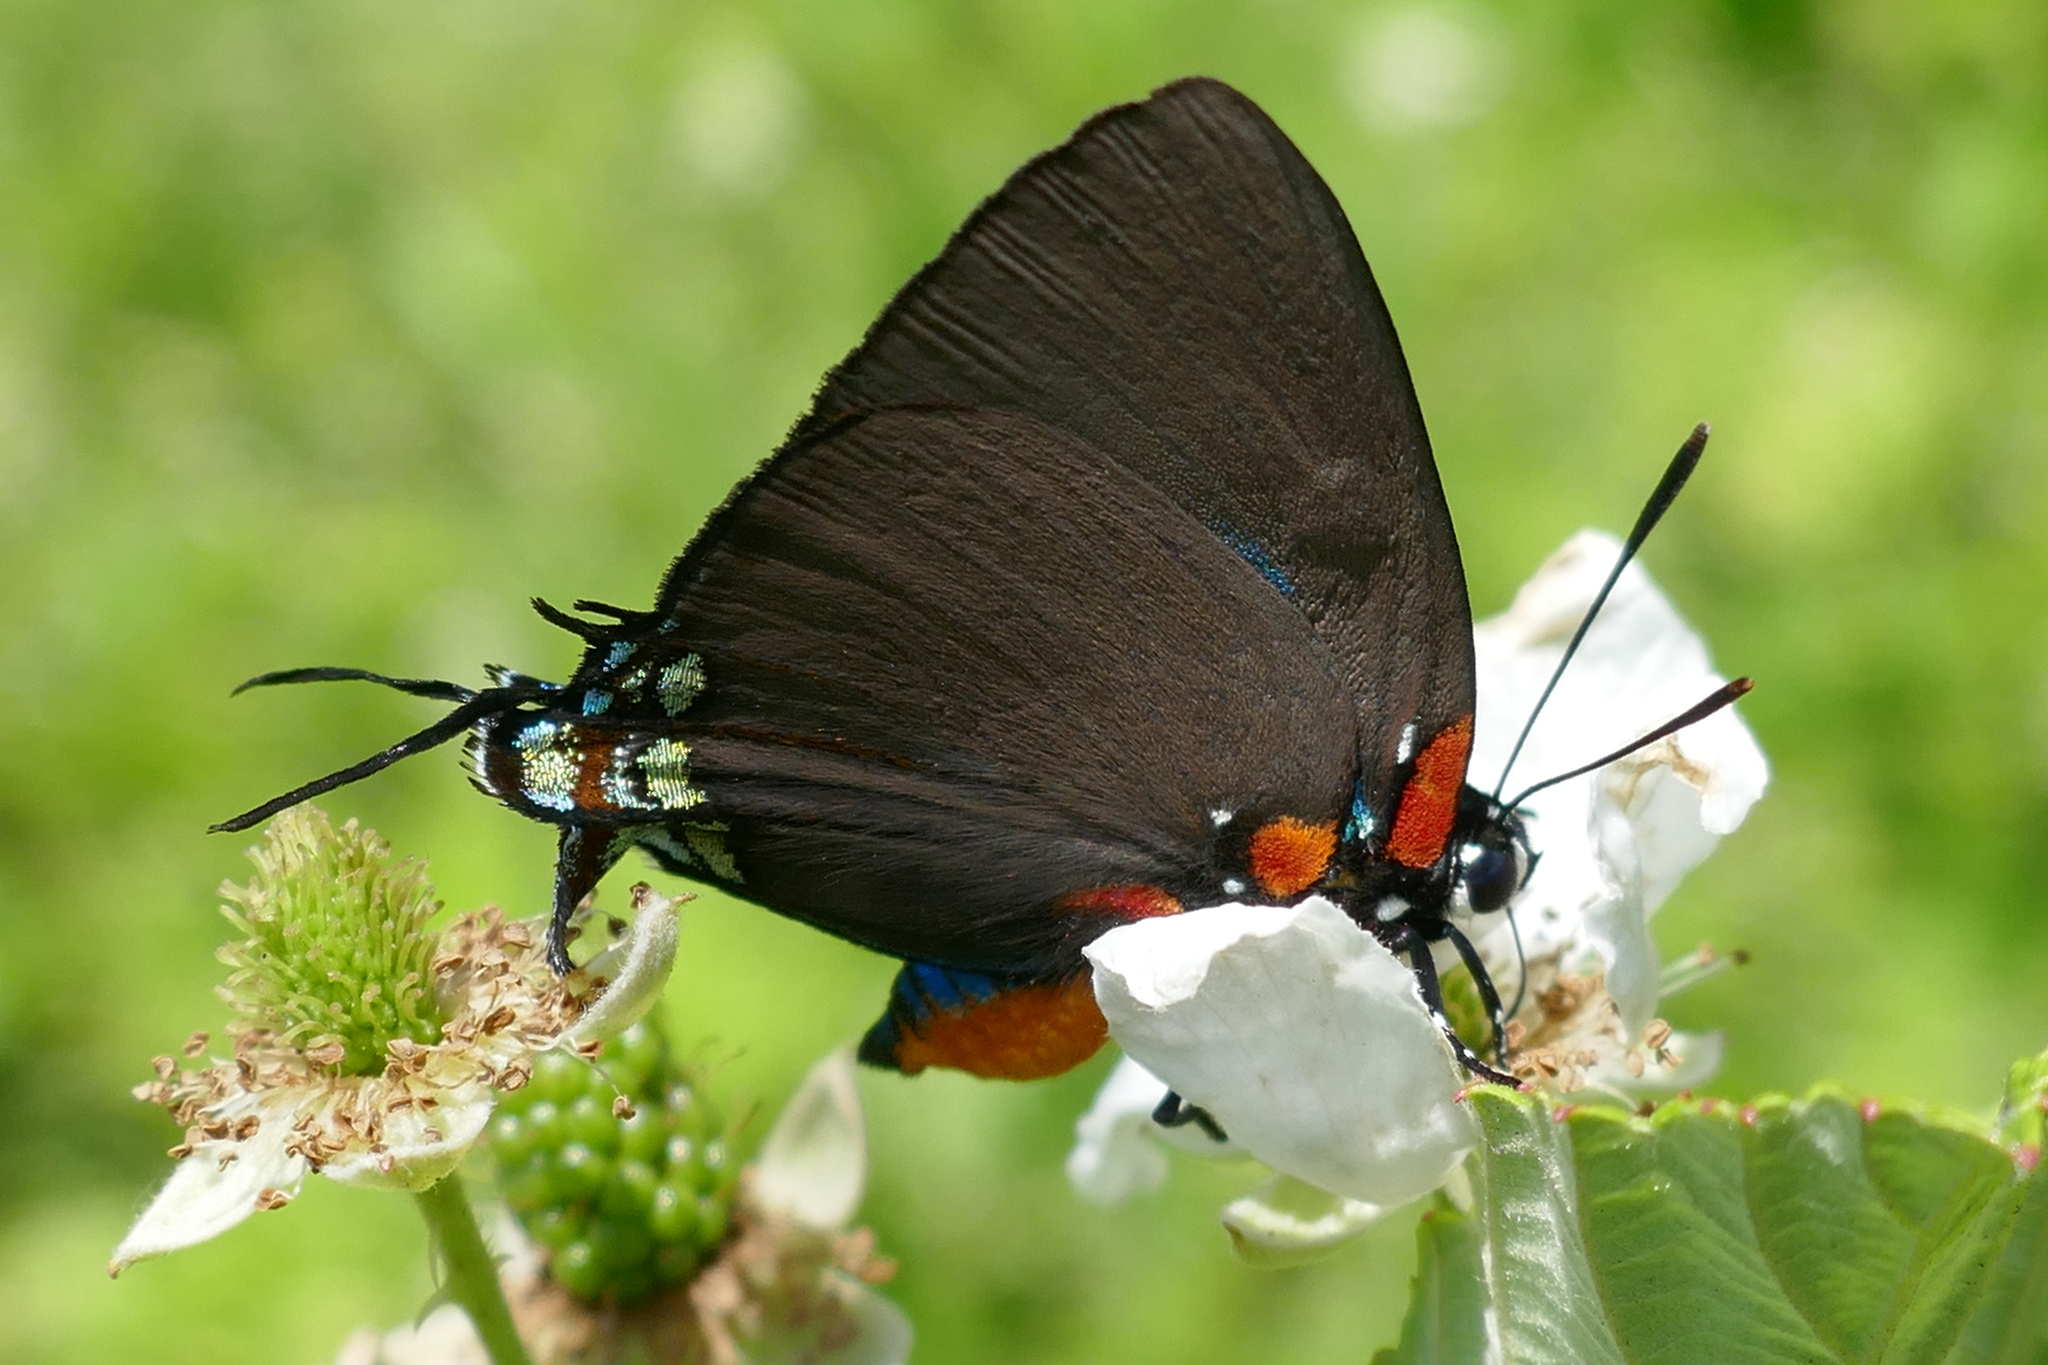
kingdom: Animalia
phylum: Arthropoda
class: Insecta
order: Lepidoptera
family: Lycaenidae
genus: Atlides
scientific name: Atlides halesus
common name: Great purple hairstreak
